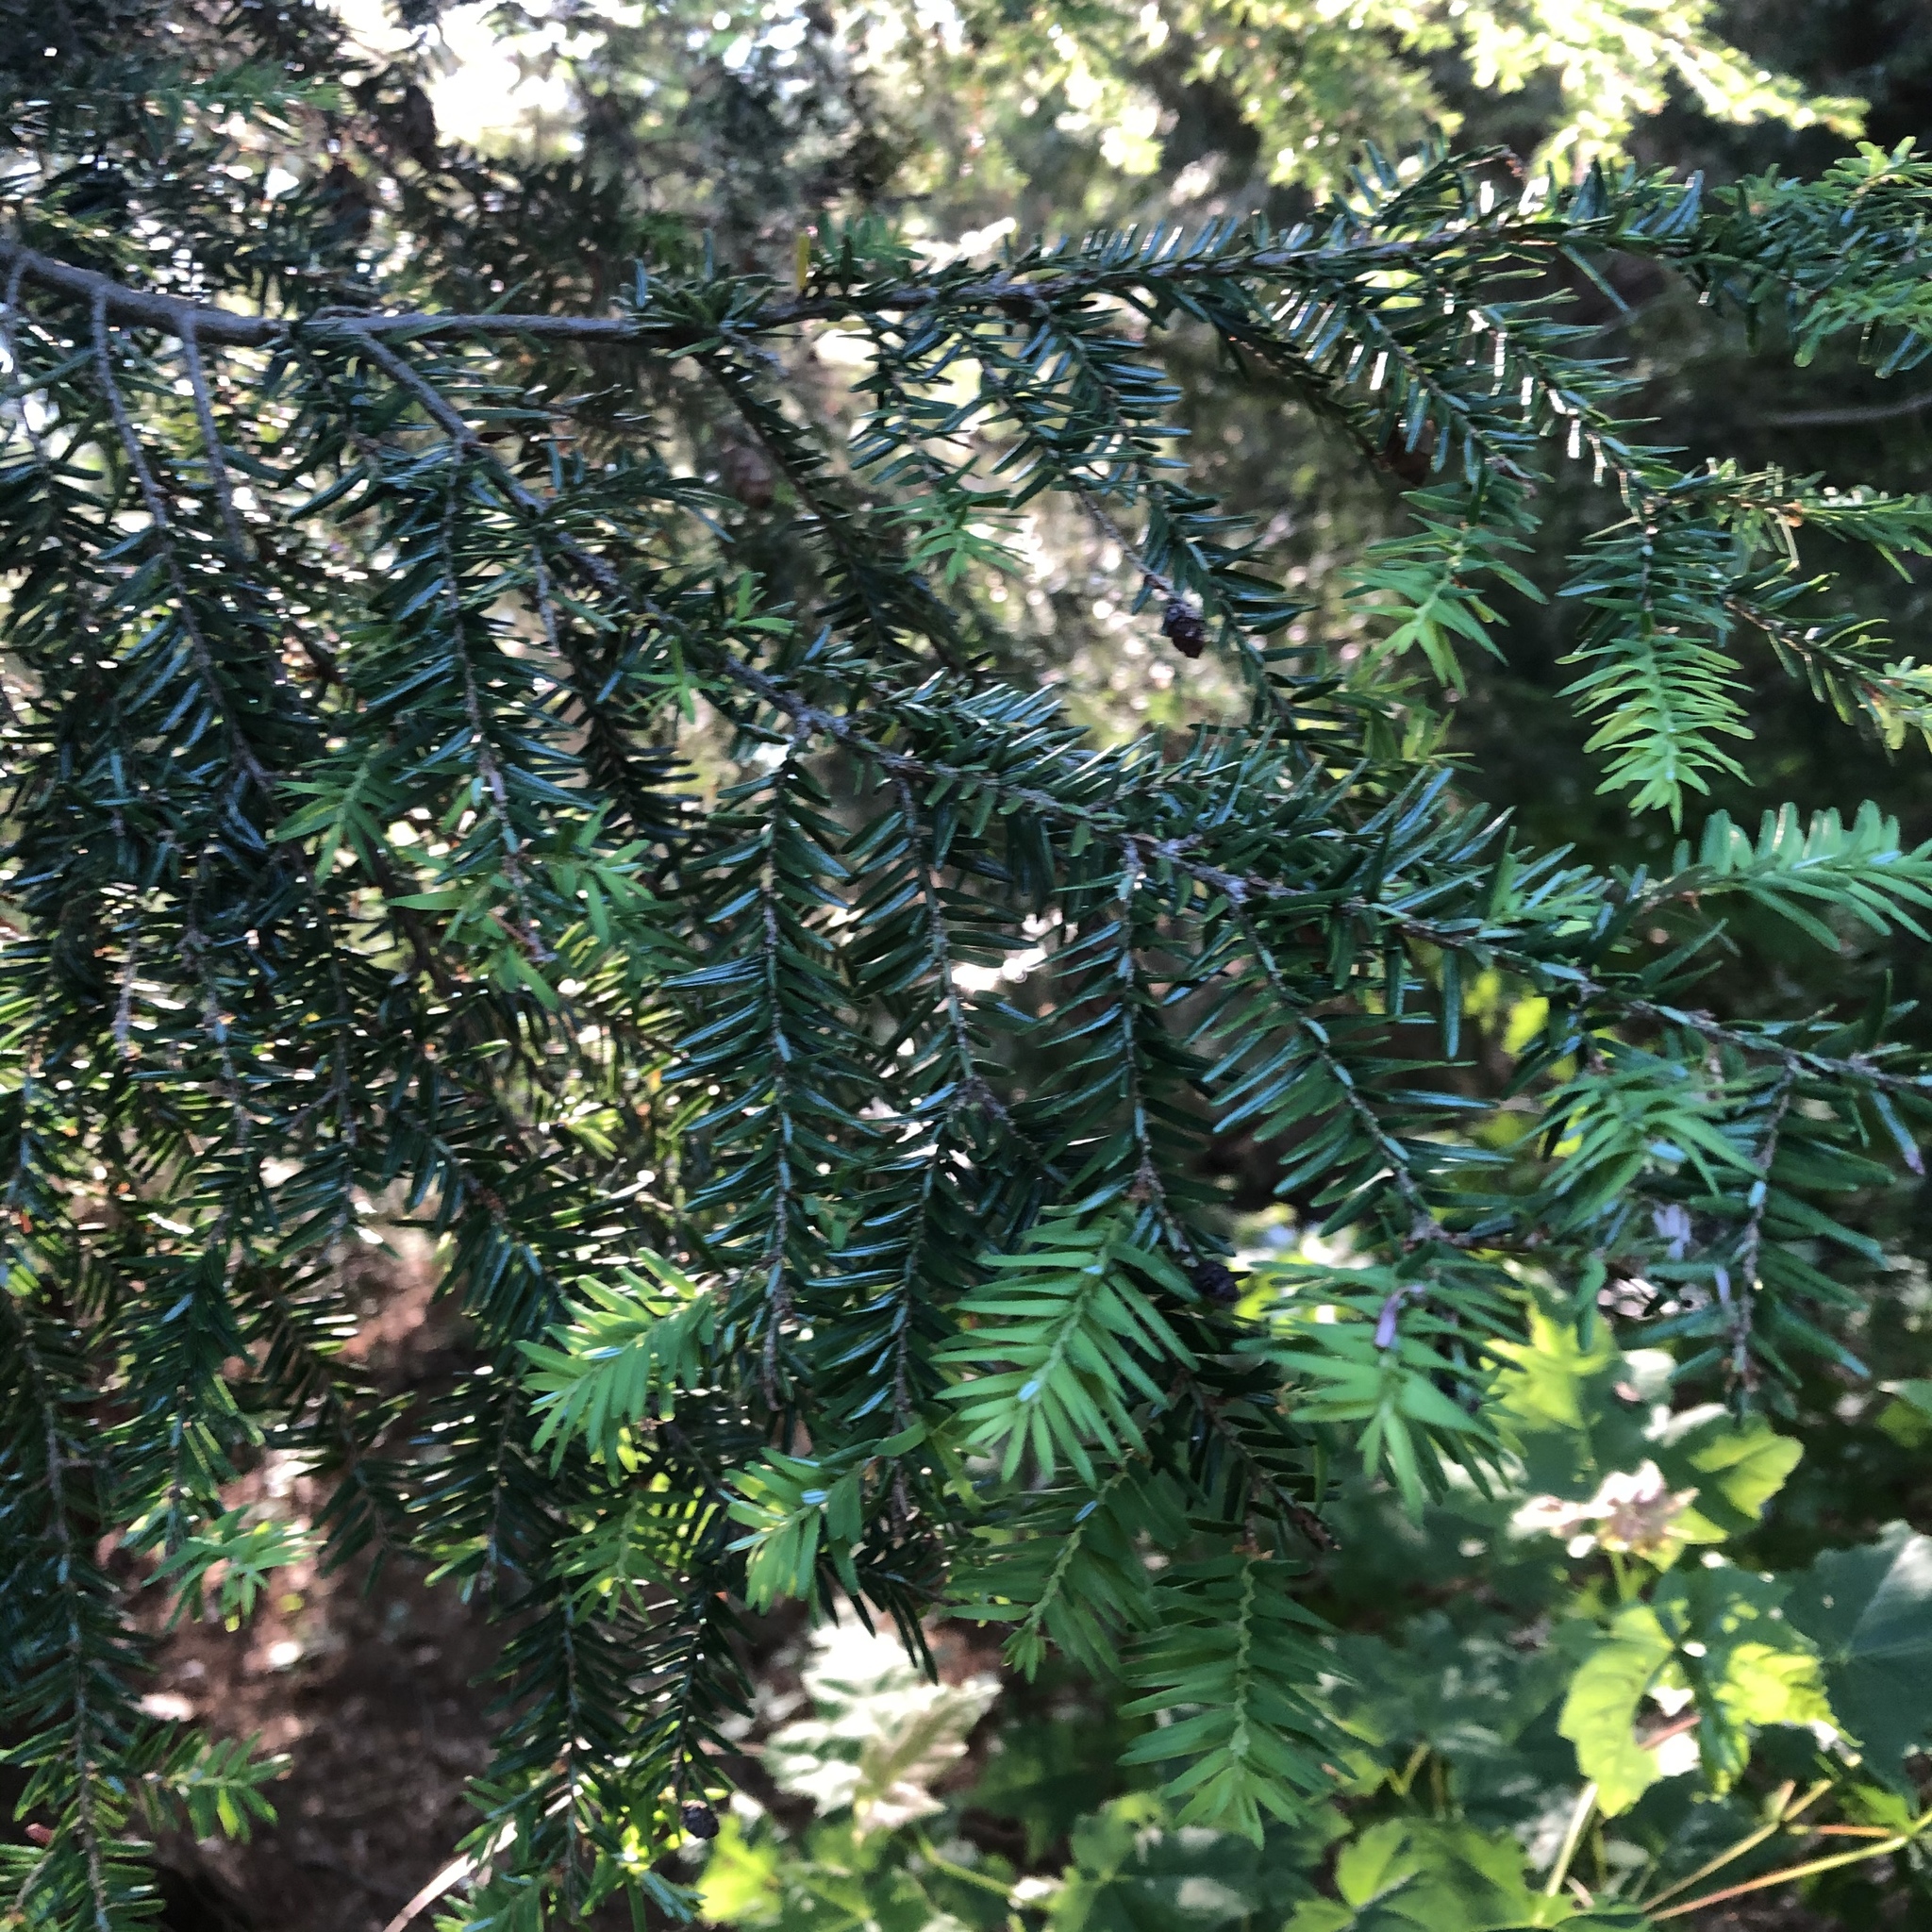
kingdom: Plantae
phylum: Tracheophyta
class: Pinopsida
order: Pinales
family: Pinaceae
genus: Tsuga
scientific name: Tsuga canadensis
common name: Eastern hemlock
